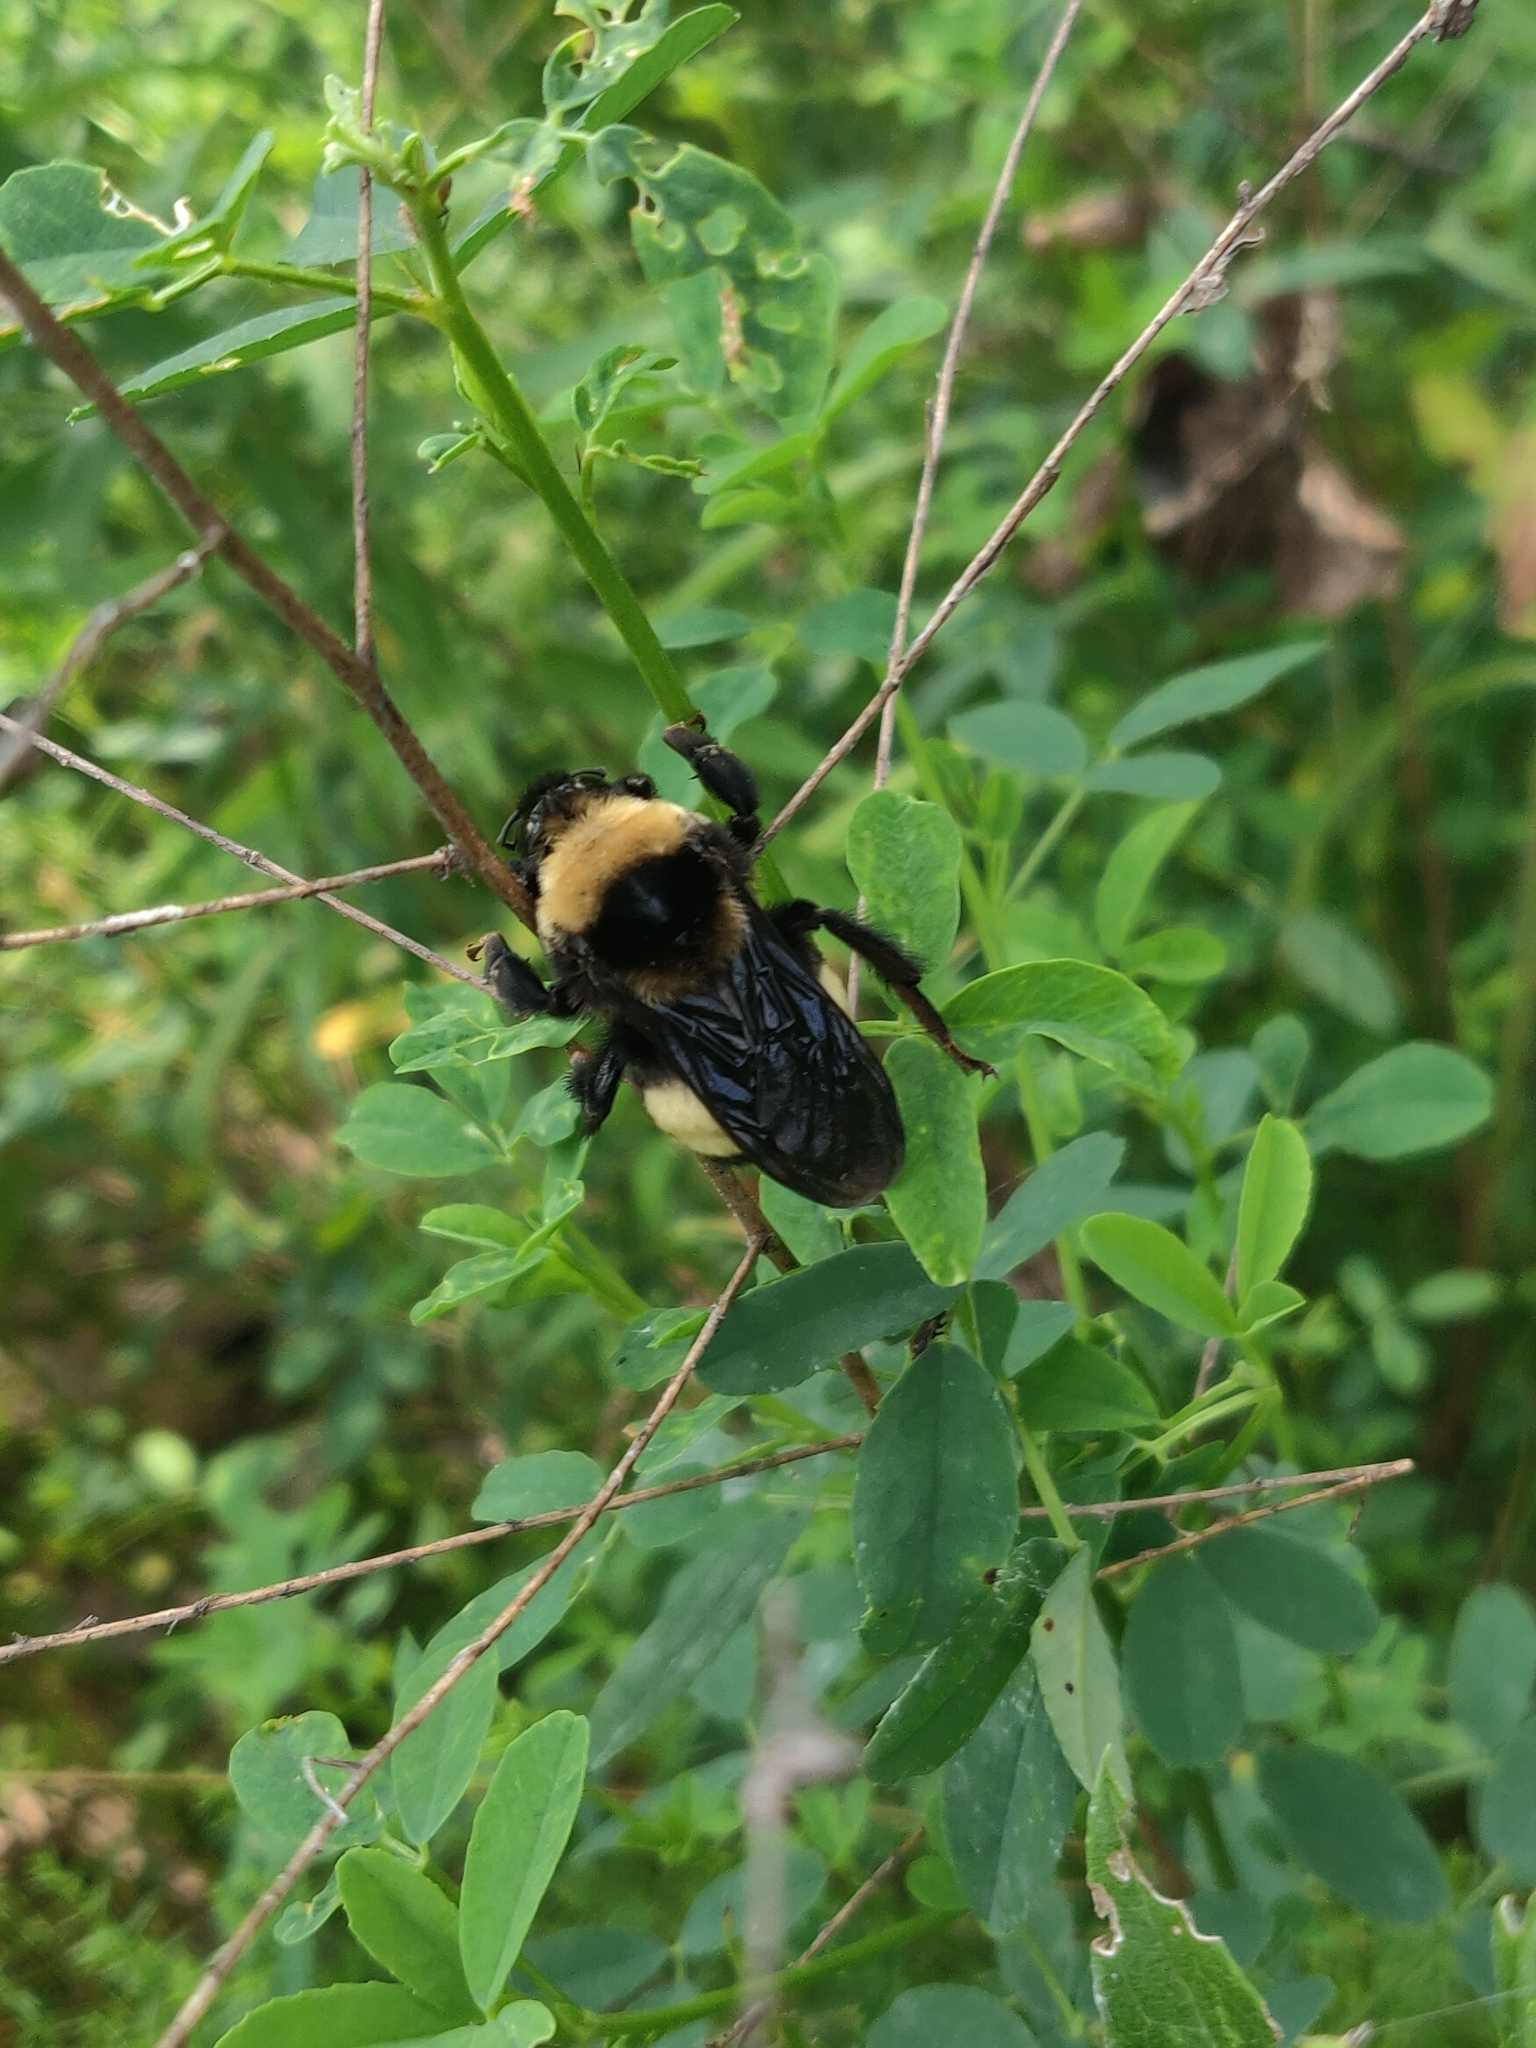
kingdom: Animalia
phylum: Arthropoda
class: Insecta
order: Hymenoptera
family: Apidae
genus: Bombus
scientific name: Bombus auricomus
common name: Black and gold bumble bee
